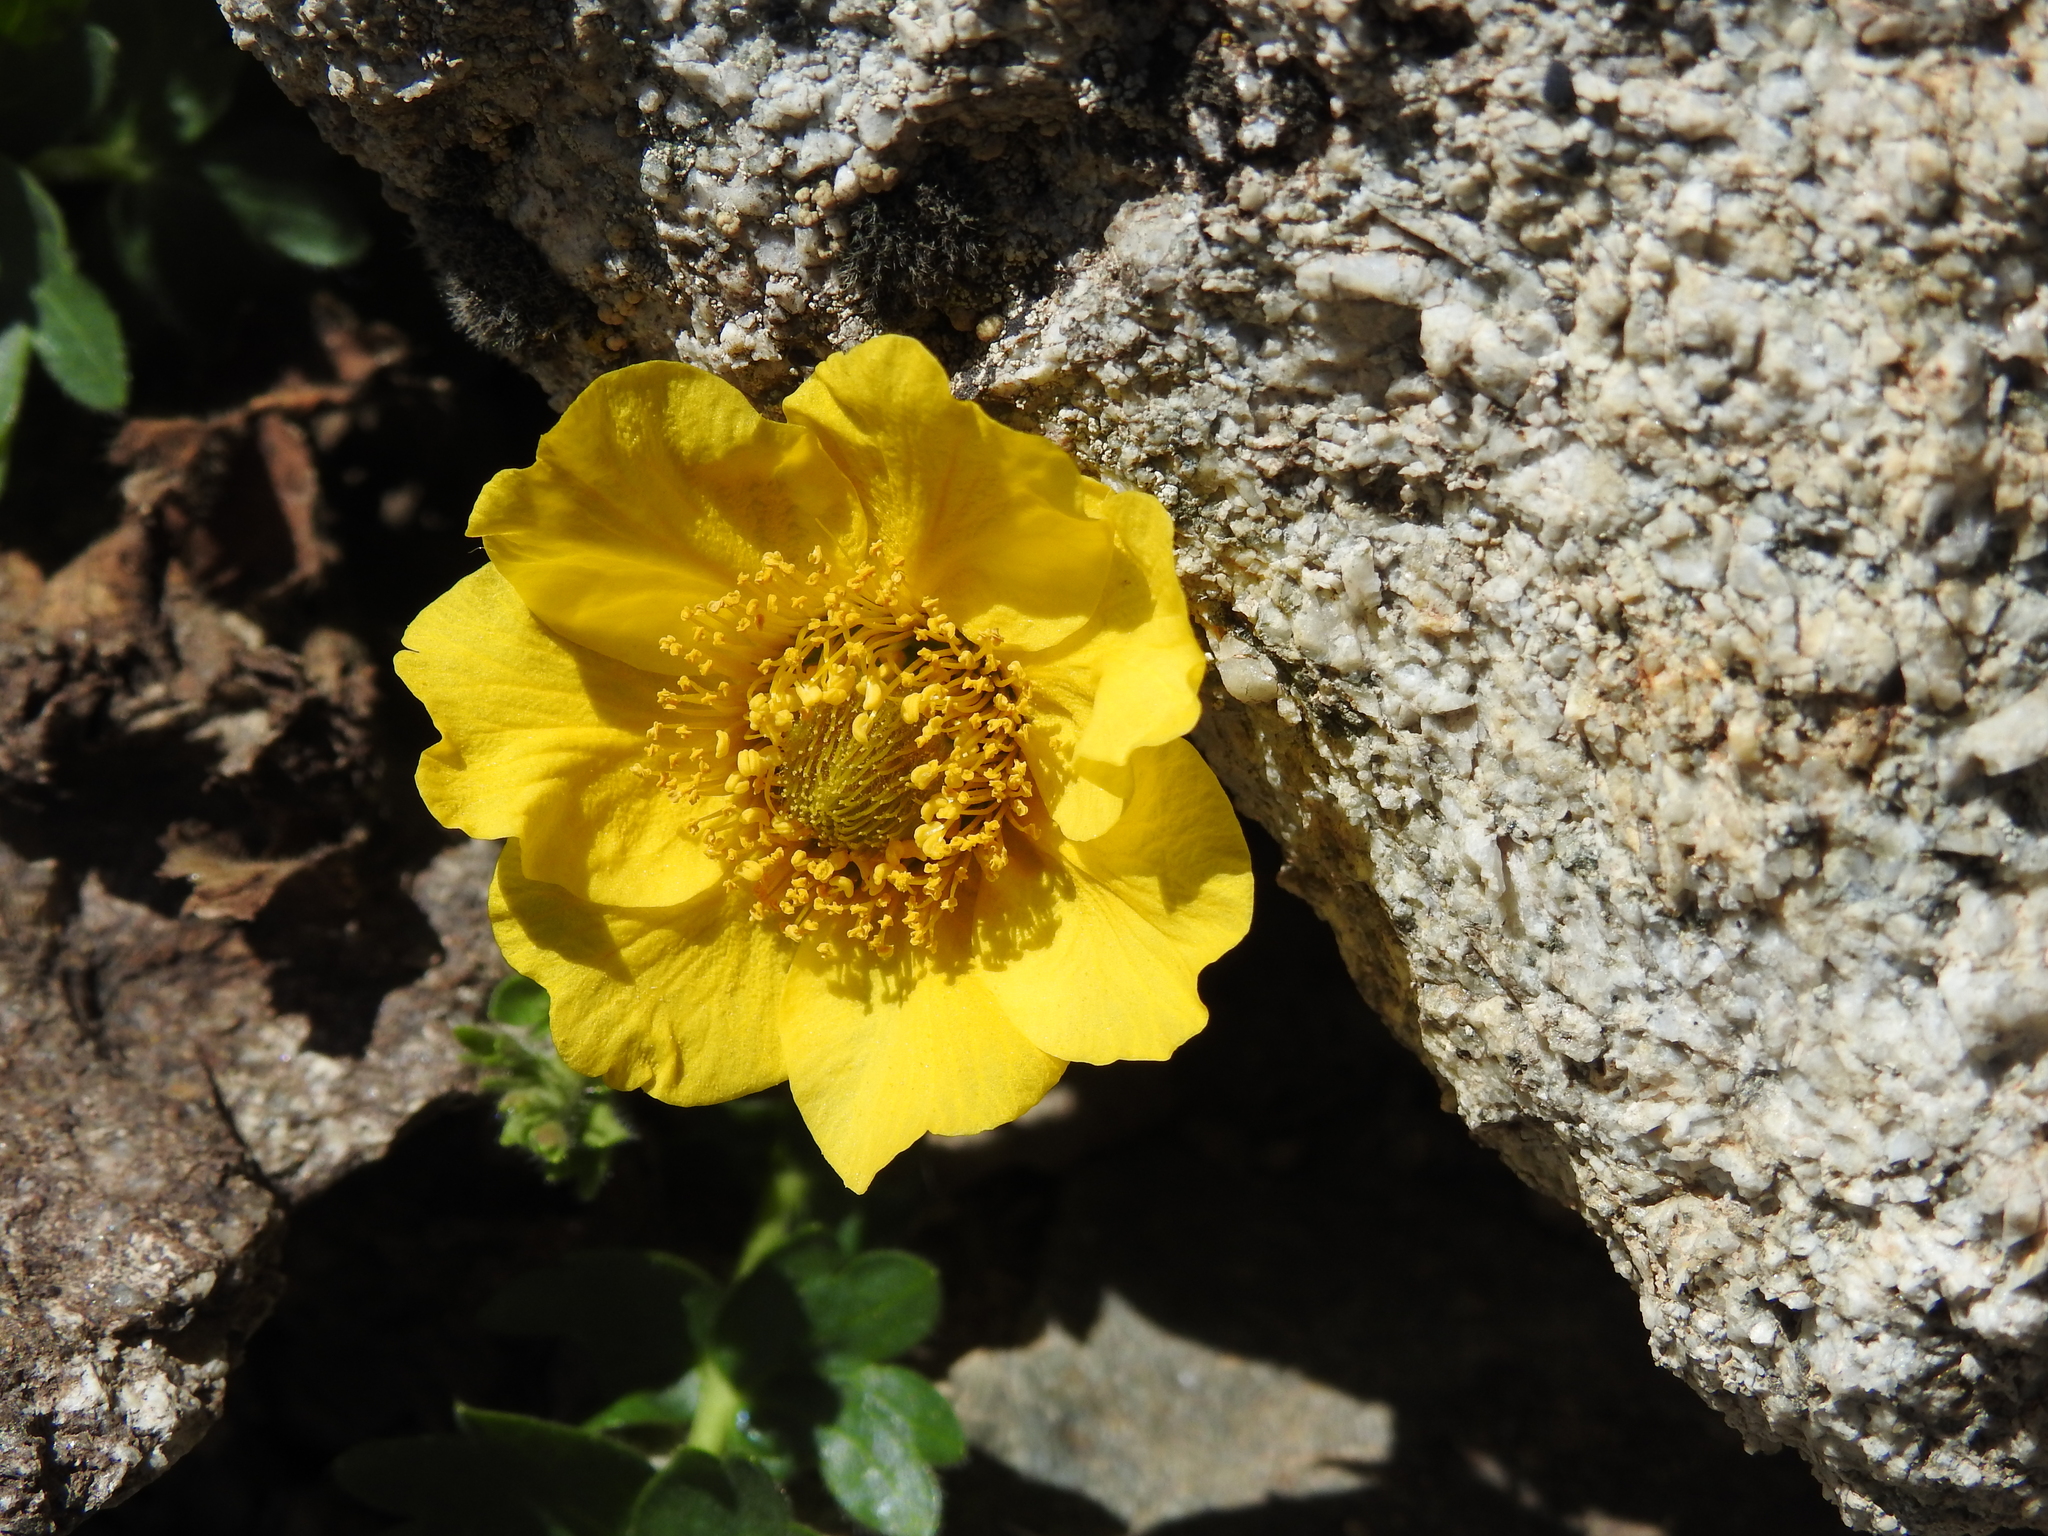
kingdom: Plantae
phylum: Tracheophyta
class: Magnoliopsida
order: Rosales
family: Rosaceae
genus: Geum
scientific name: Geum reptans
